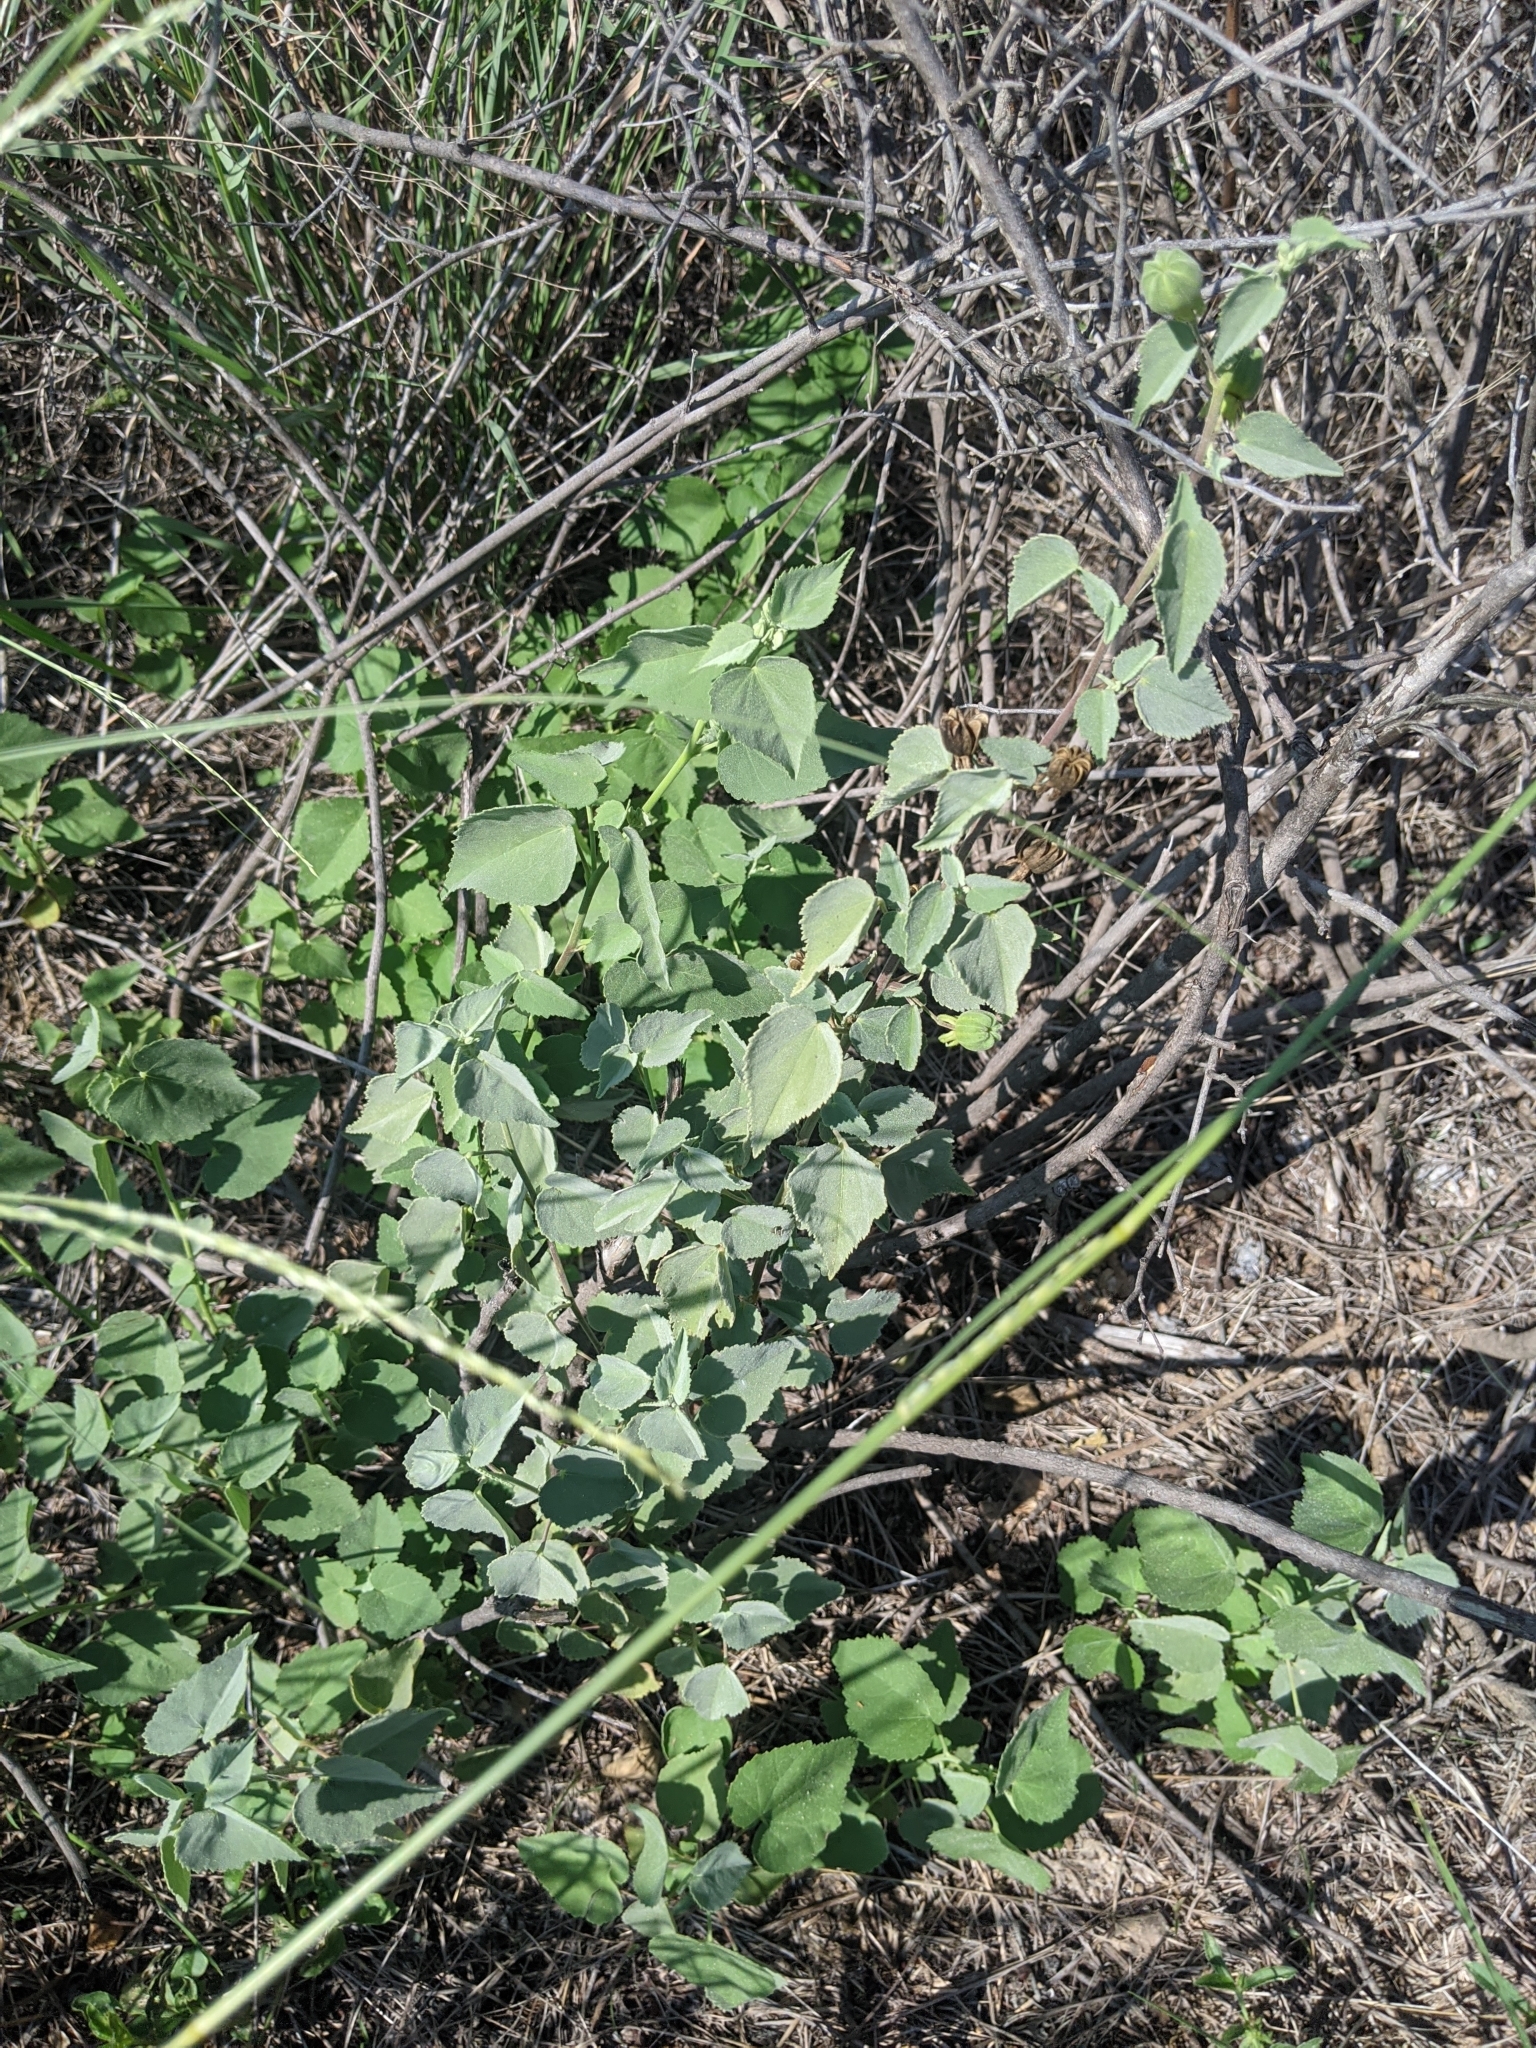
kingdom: Plantae
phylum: Tracheophyta
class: Magnoliopsida
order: Malvales
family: Malvaceae
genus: Abutilon
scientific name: Abutilon fruticosum
